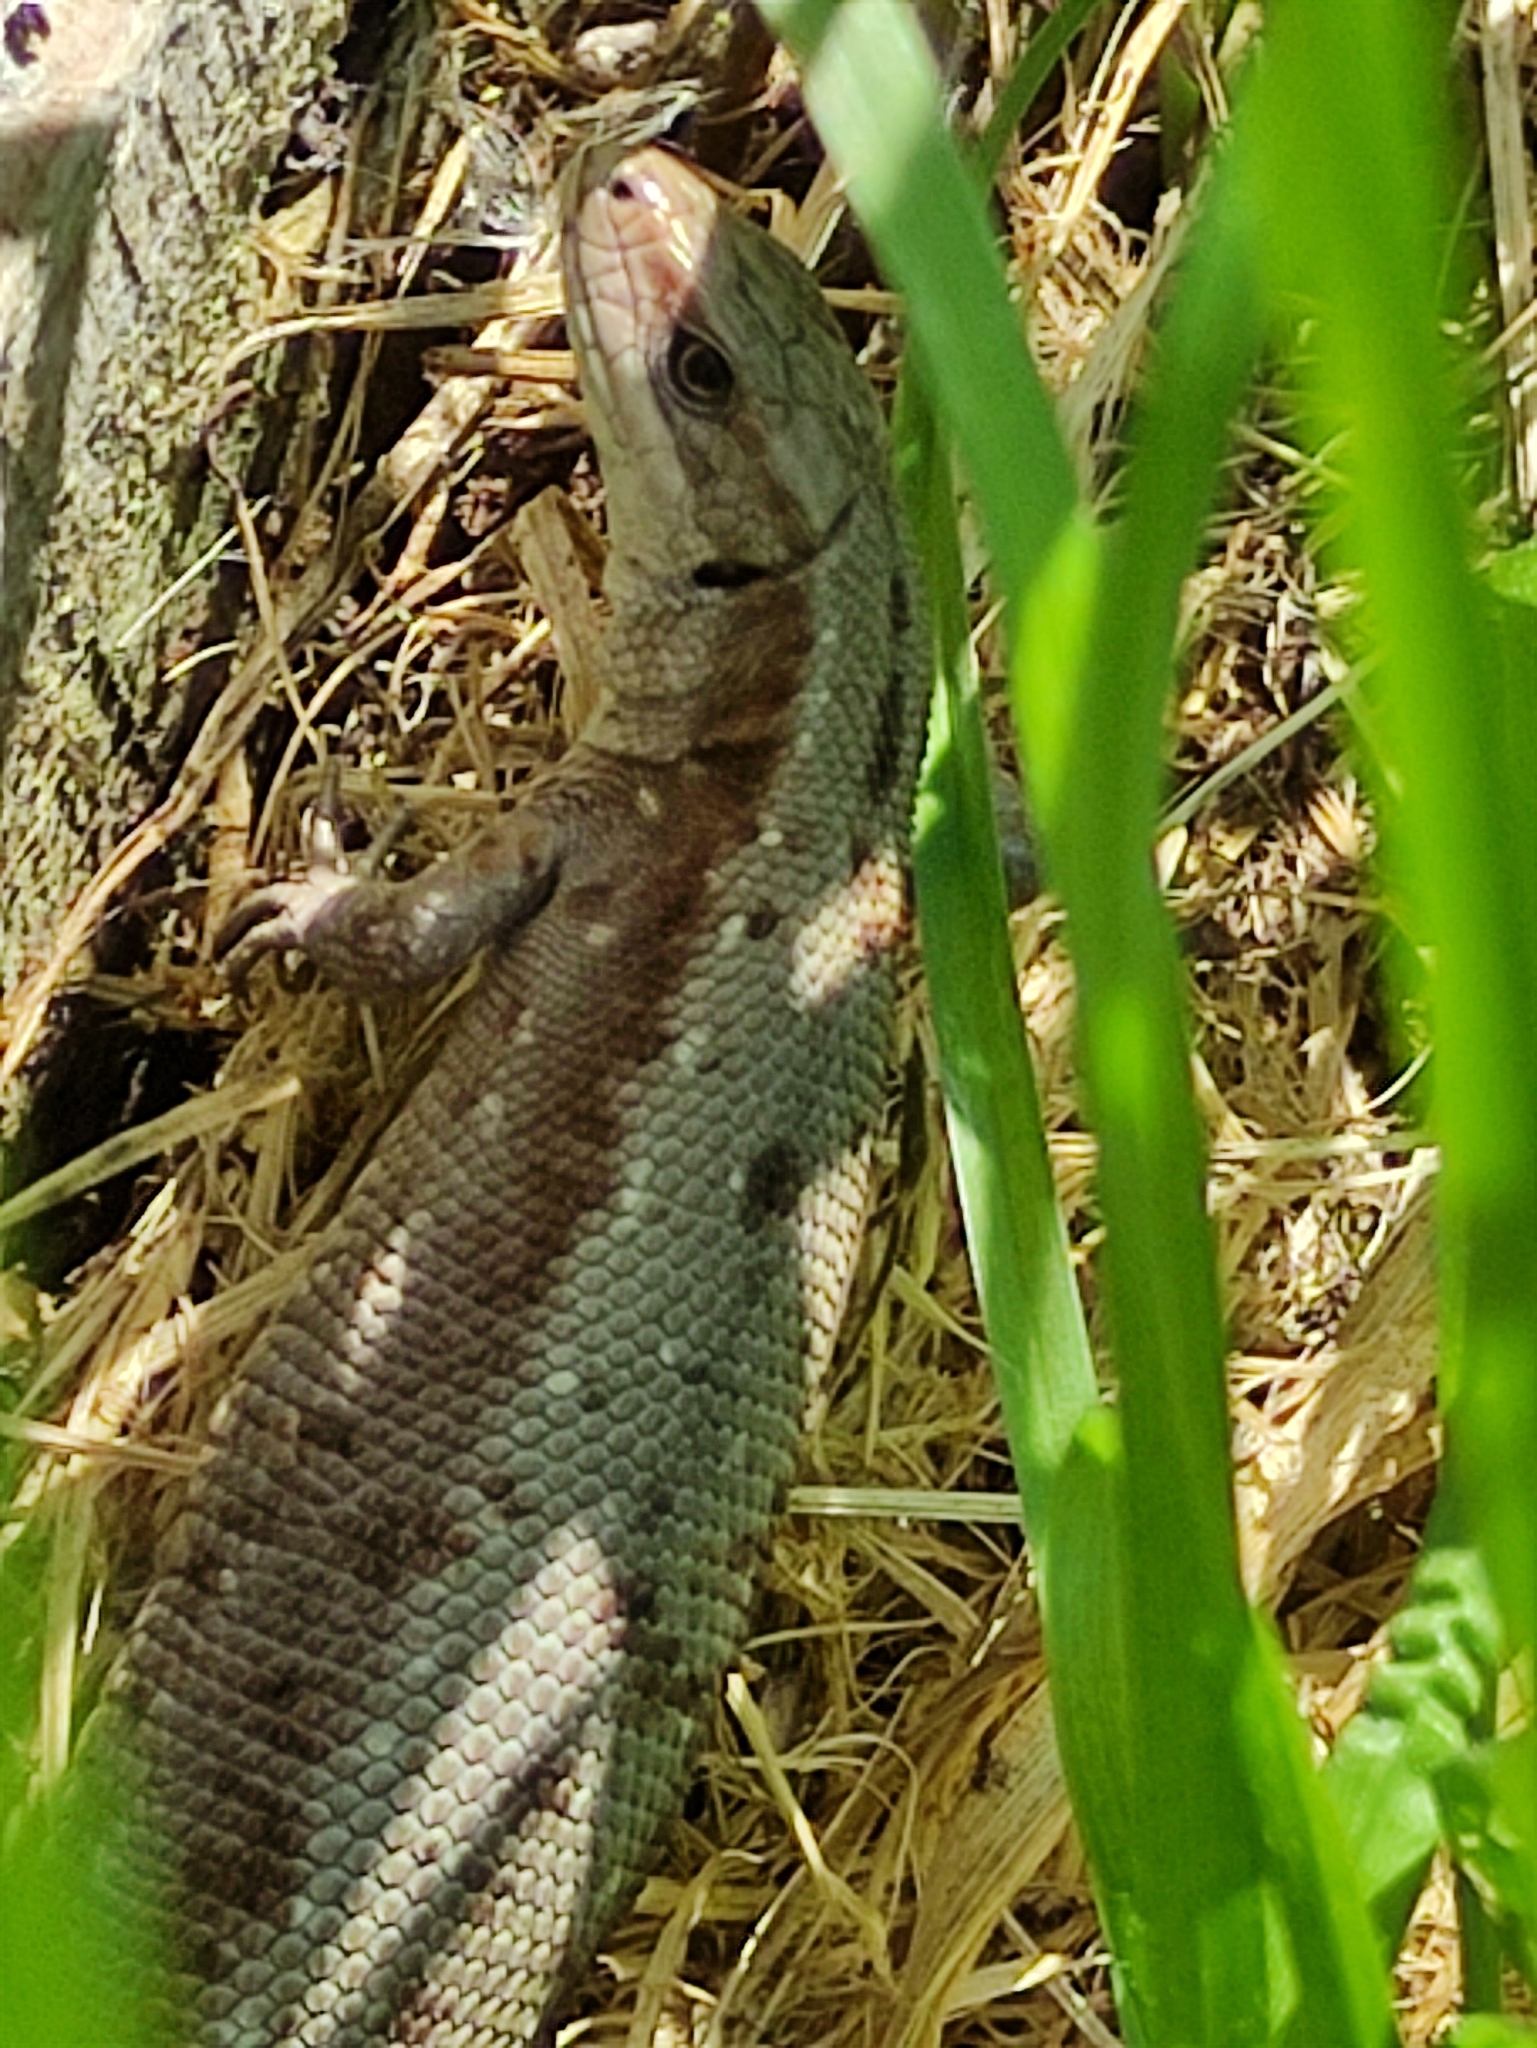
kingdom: Animalia
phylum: Chordata
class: Squamata
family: Lacertidae
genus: Zootoca
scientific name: Zootoca vivipara
